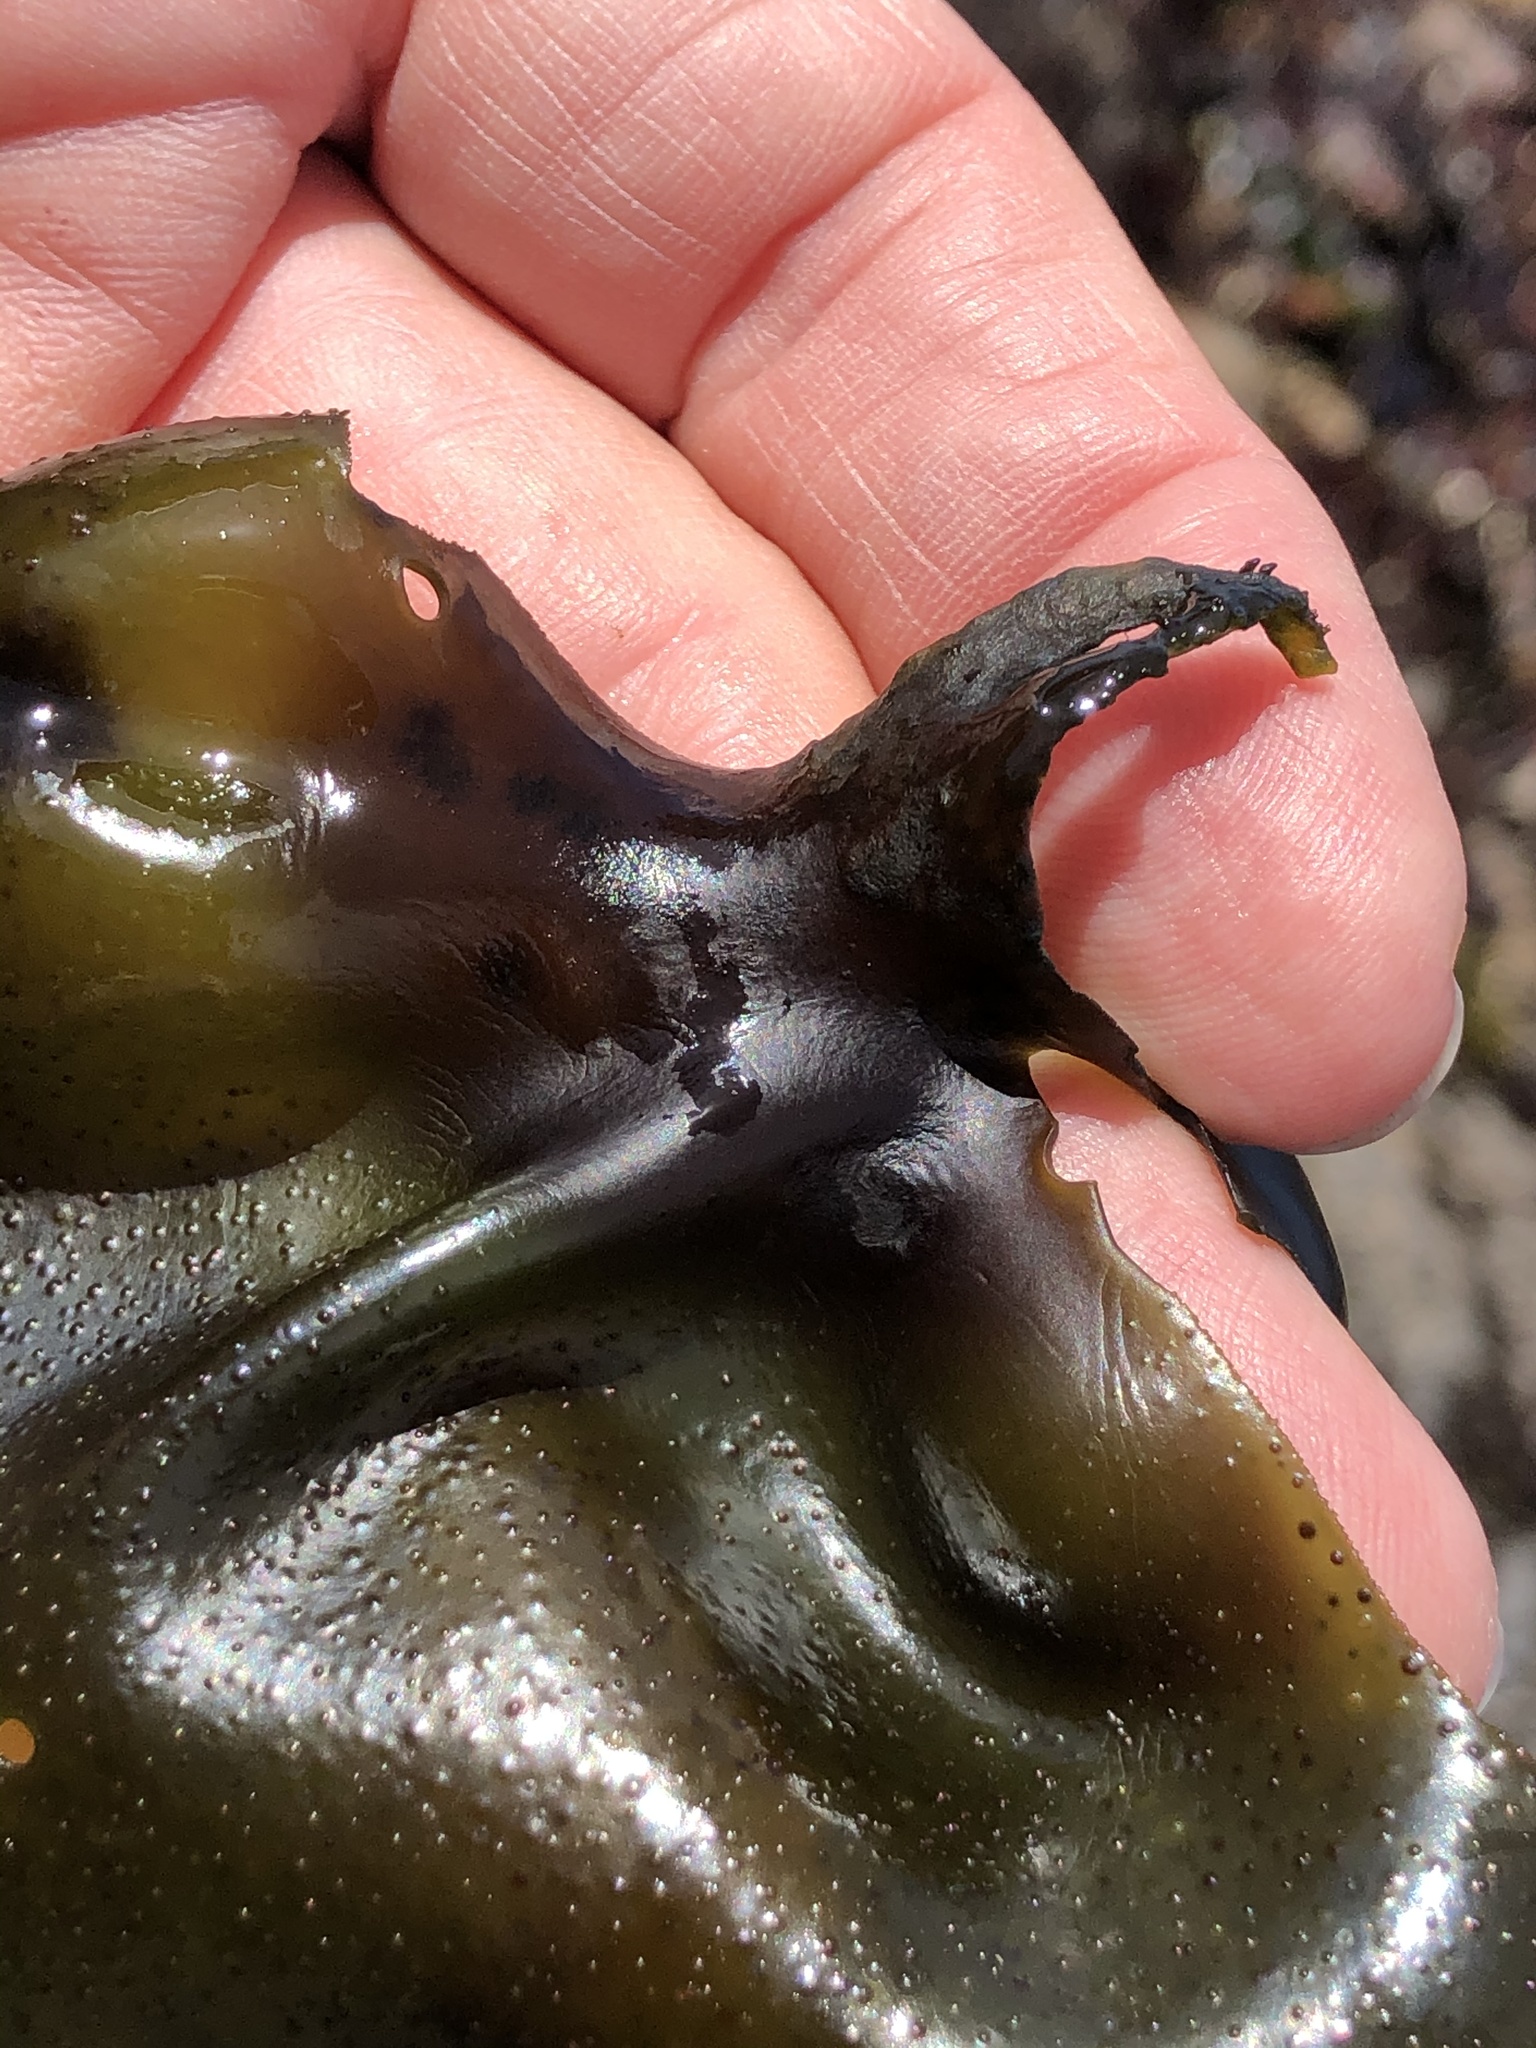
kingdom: Plantae
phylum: Rhodophyta
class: Florideophyceae
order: Gigartinales
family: Gigartinaceae
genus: Mazzaella
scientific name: Mazzaella oregona
